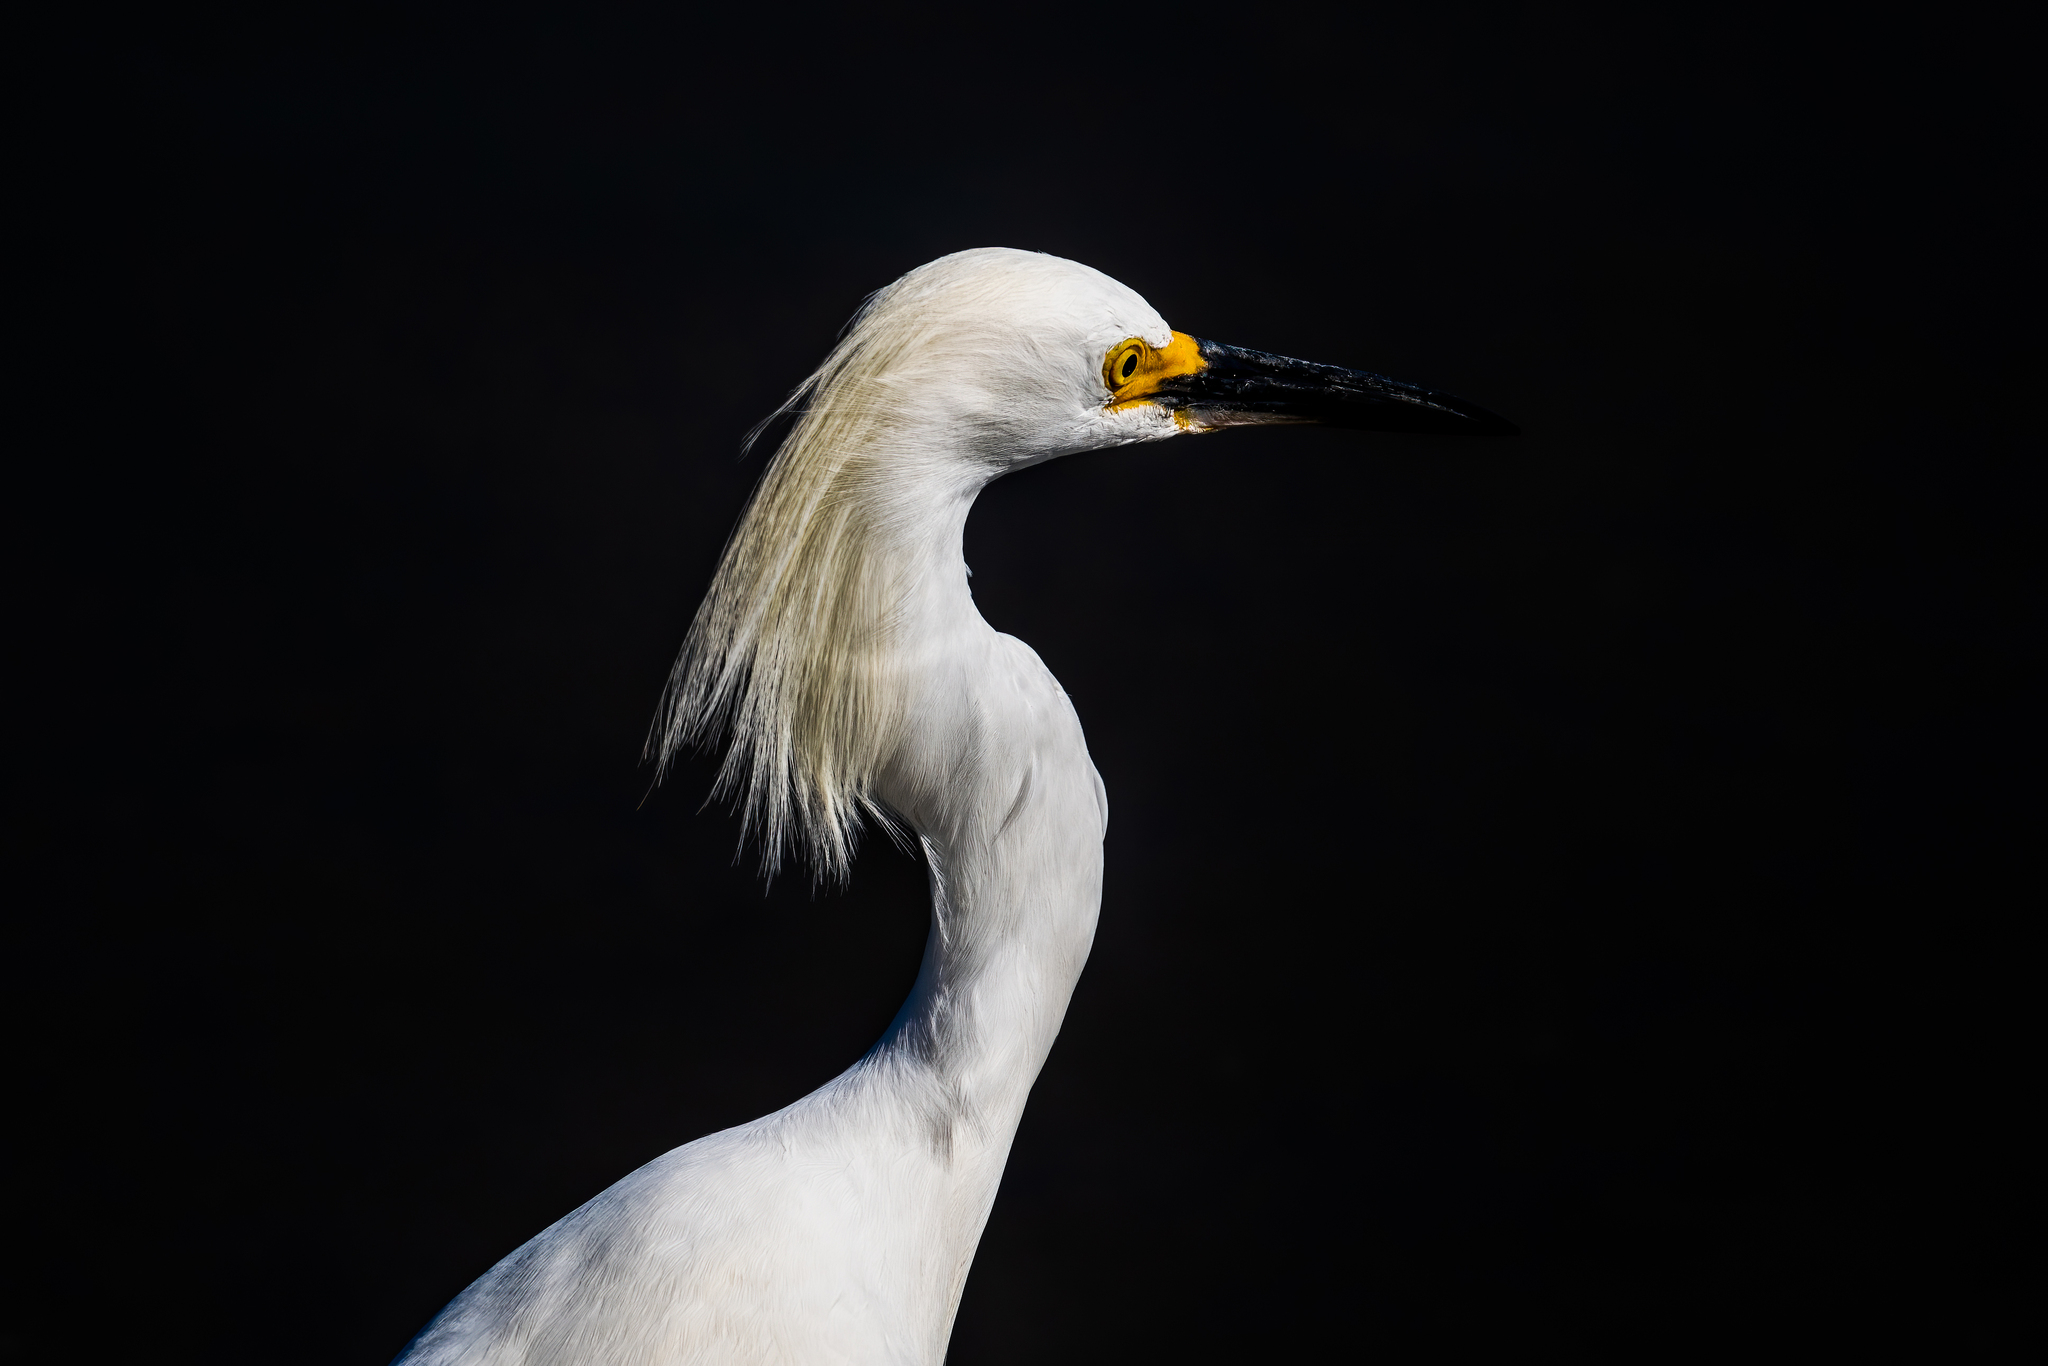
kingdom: Animalia
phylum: Chordata
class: Aves
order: Pelecaniformes
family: Ardeidae
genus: Egretta
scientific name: Egretta thula
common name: Snowy egret
